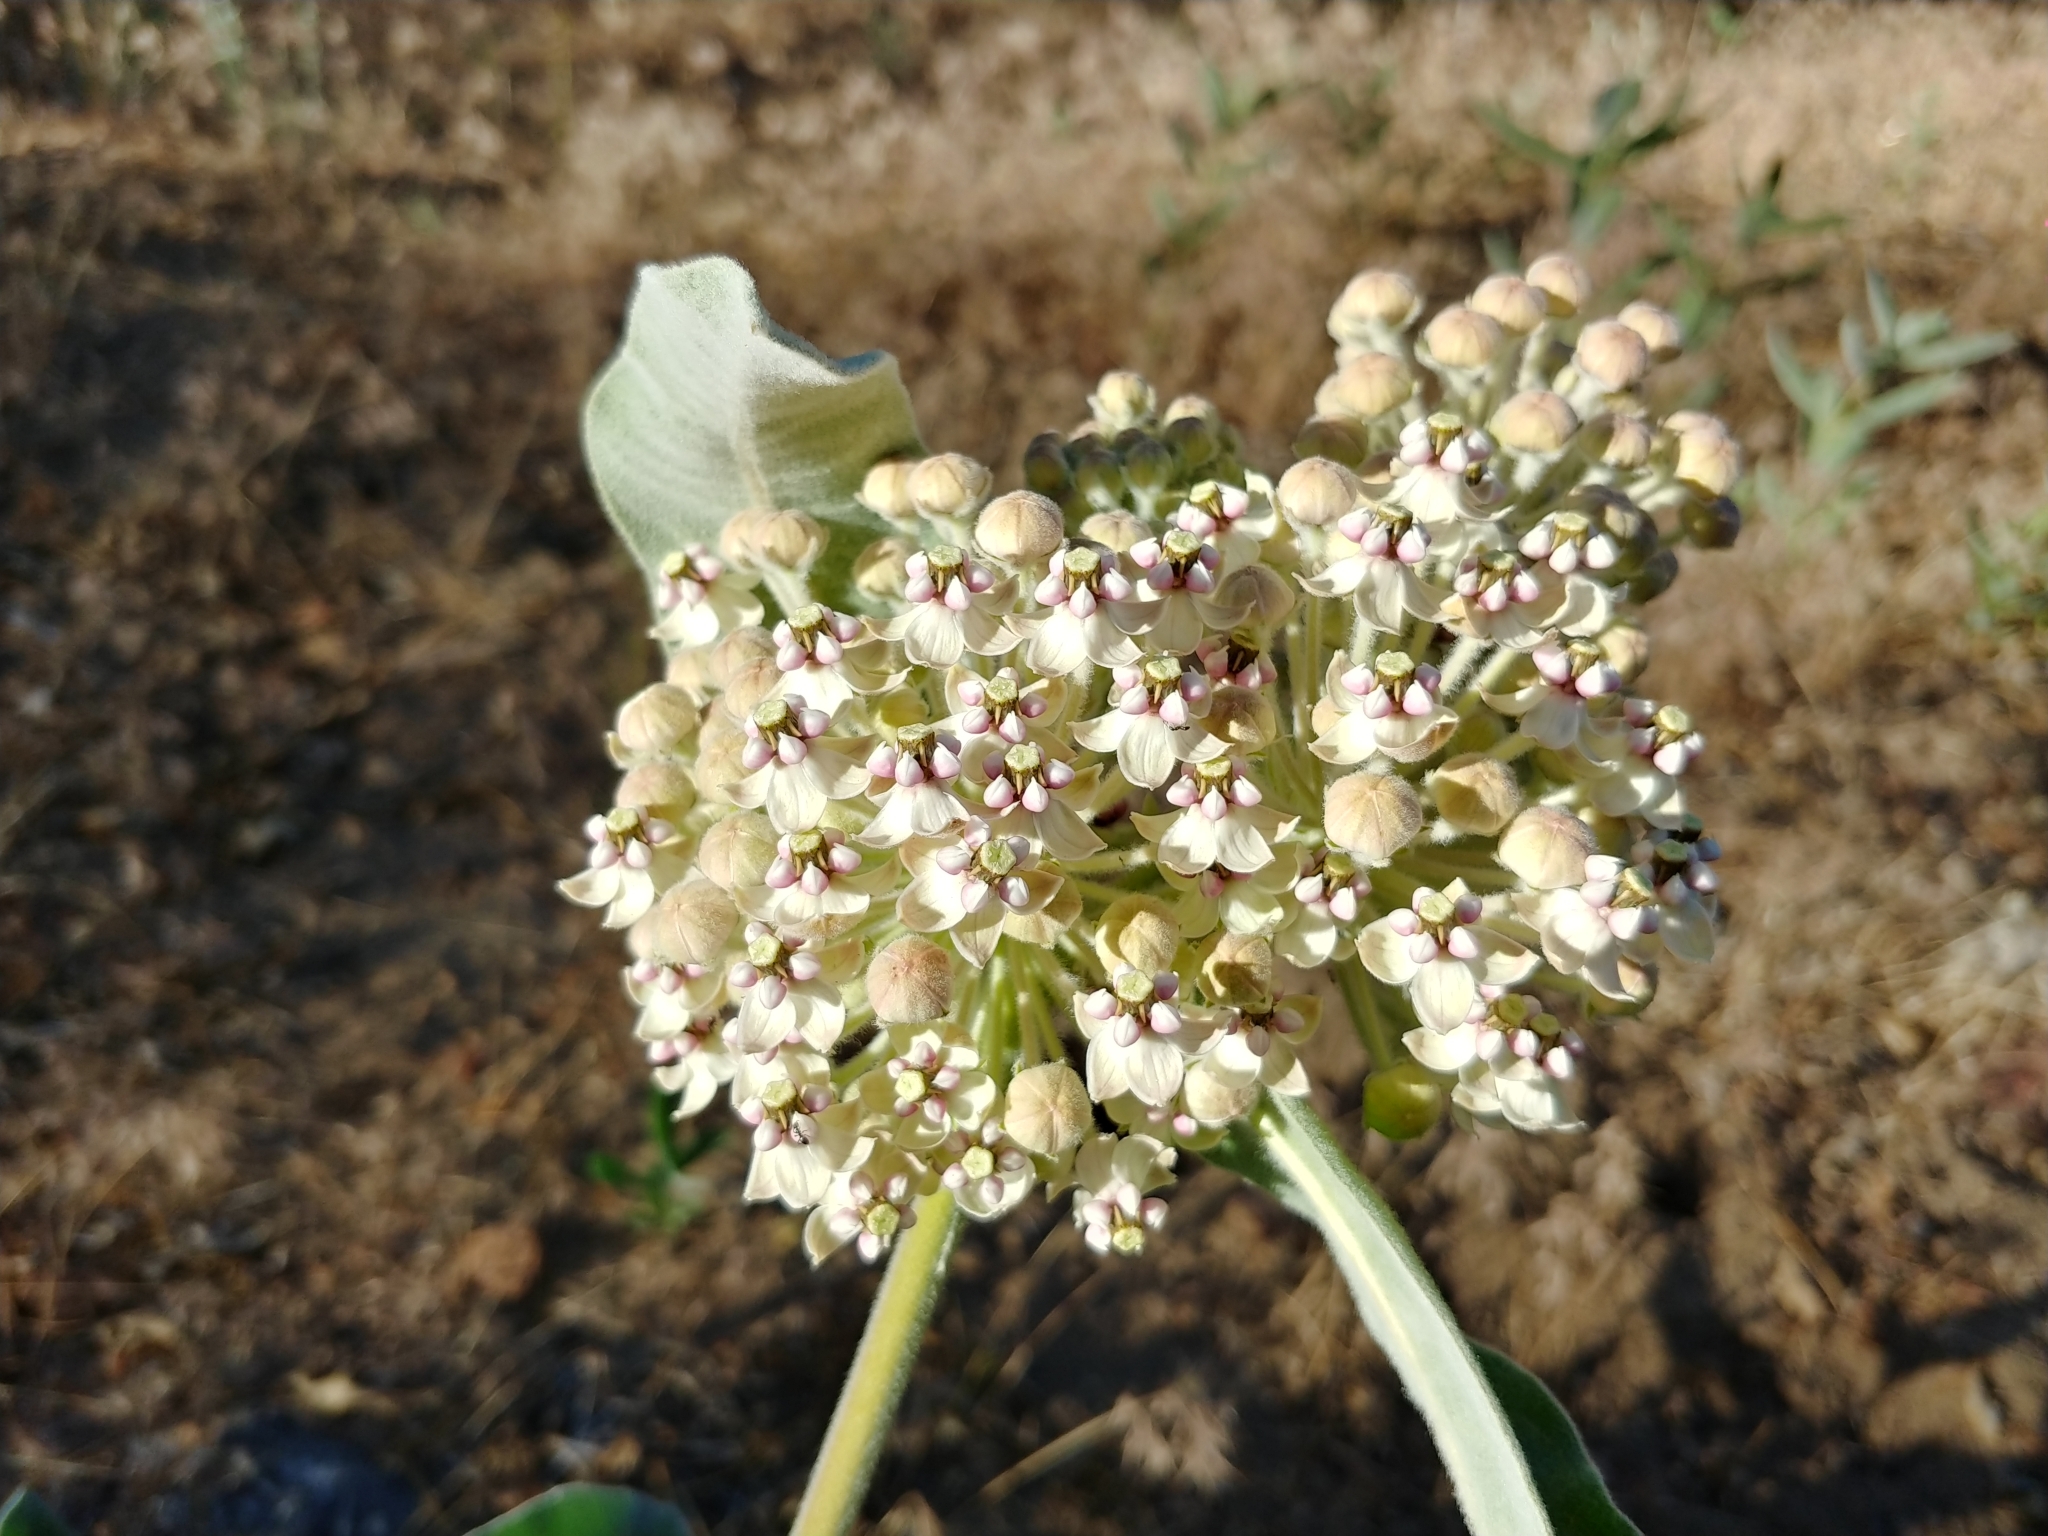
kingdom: Plantae
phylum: Tracheophyta
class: Magnoliopsida
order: Gentianales
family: Apocynaceae
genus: Asclepias
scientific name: Asclepias eriocarpa
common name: Indian milkweed
